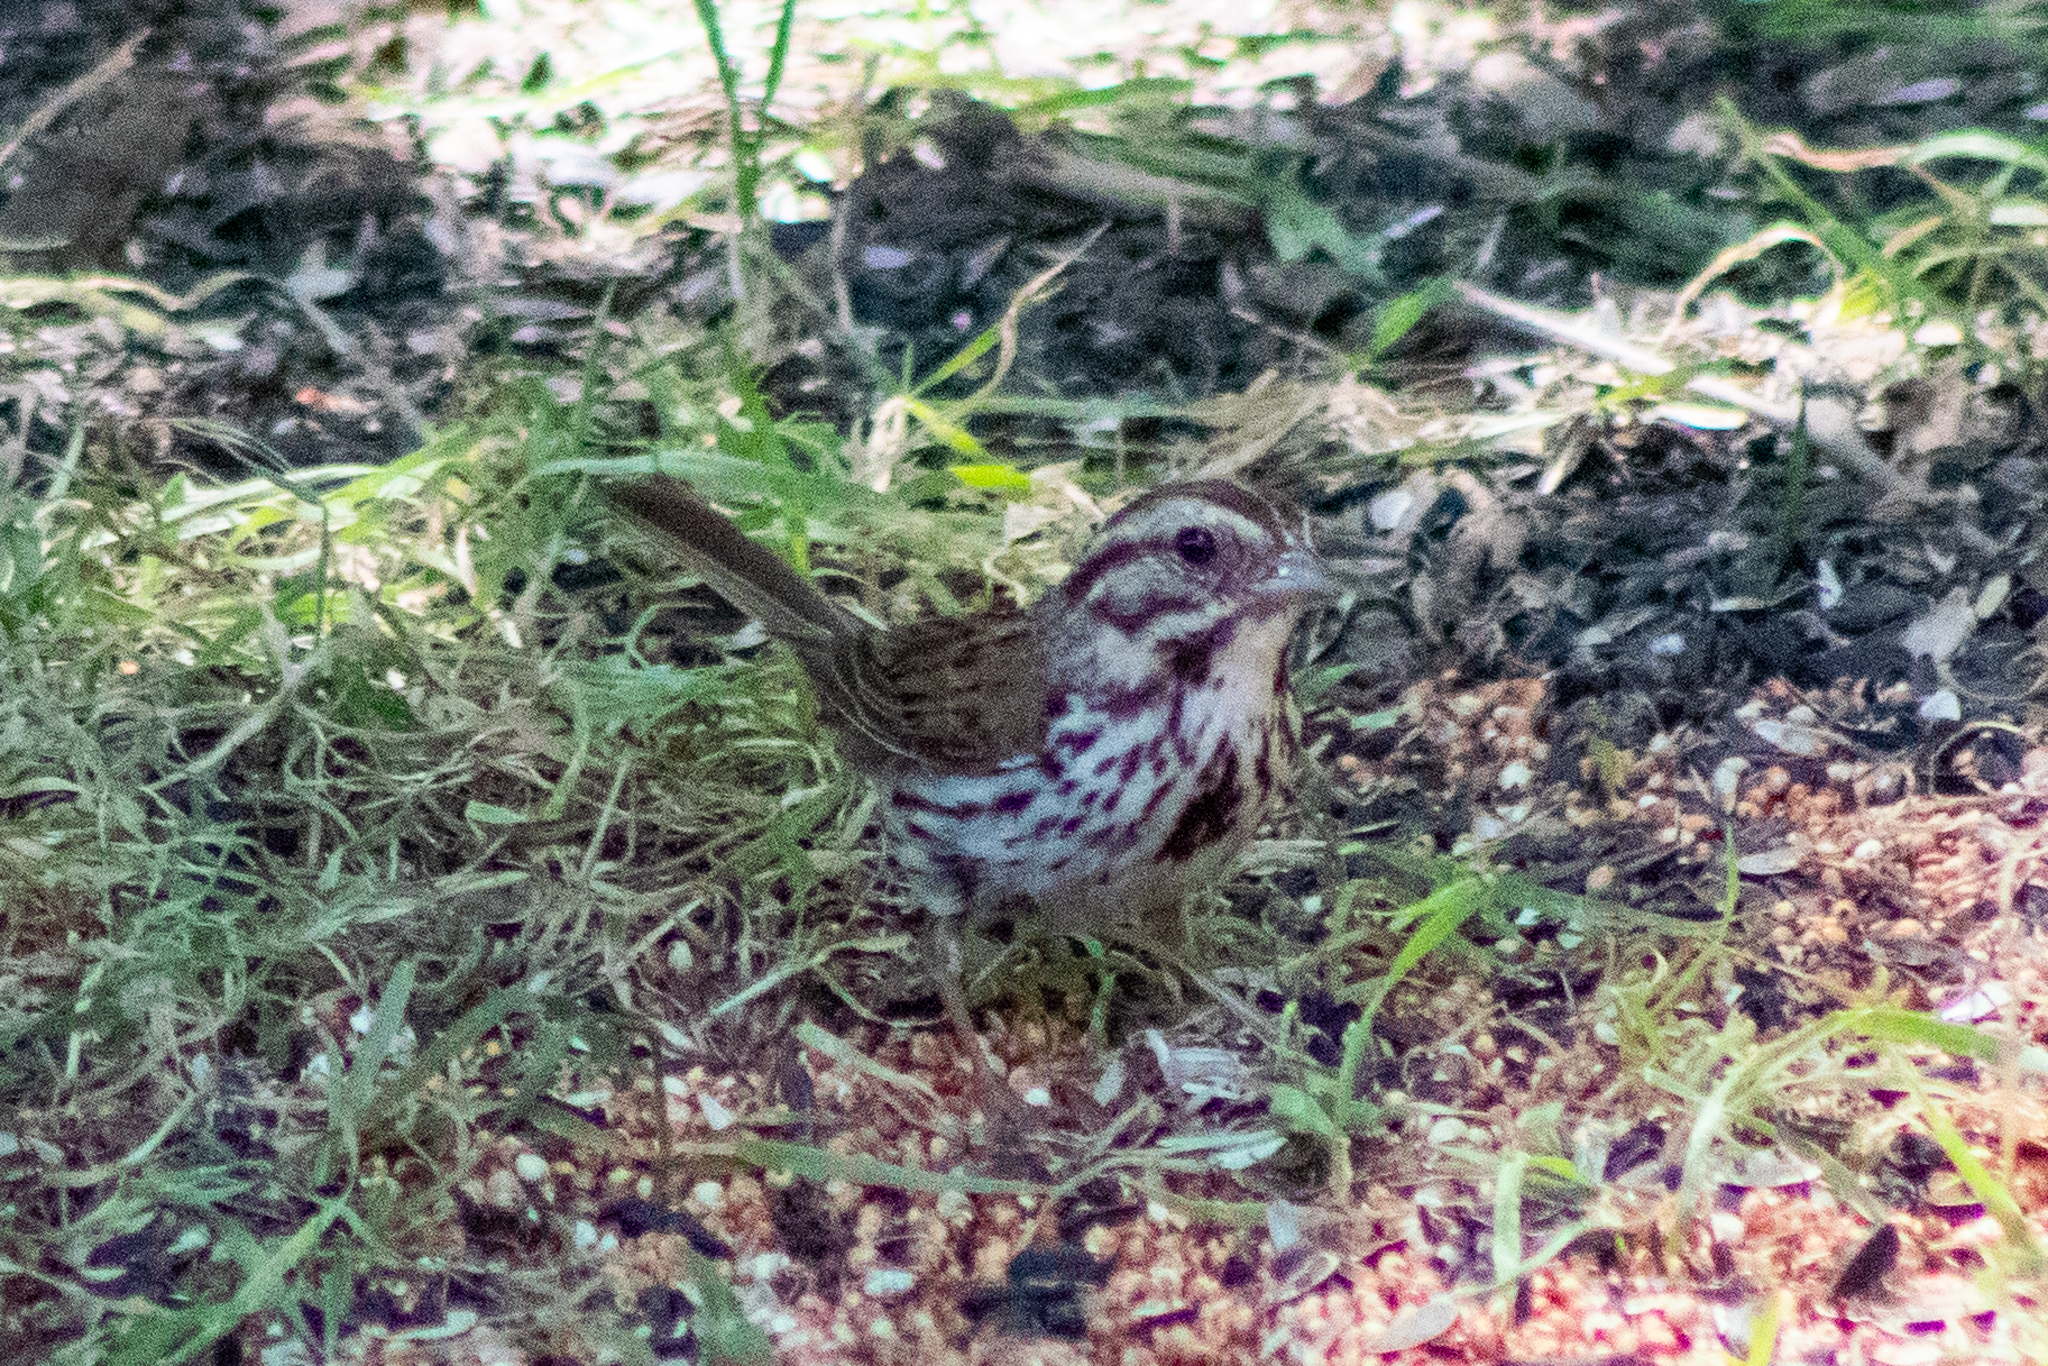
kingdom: Animalia
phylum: Chordata
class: Aves
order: Passeriformes
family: Passerellidae
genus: Melospiza
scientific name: Melospiza melodia
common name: Song sparrow
